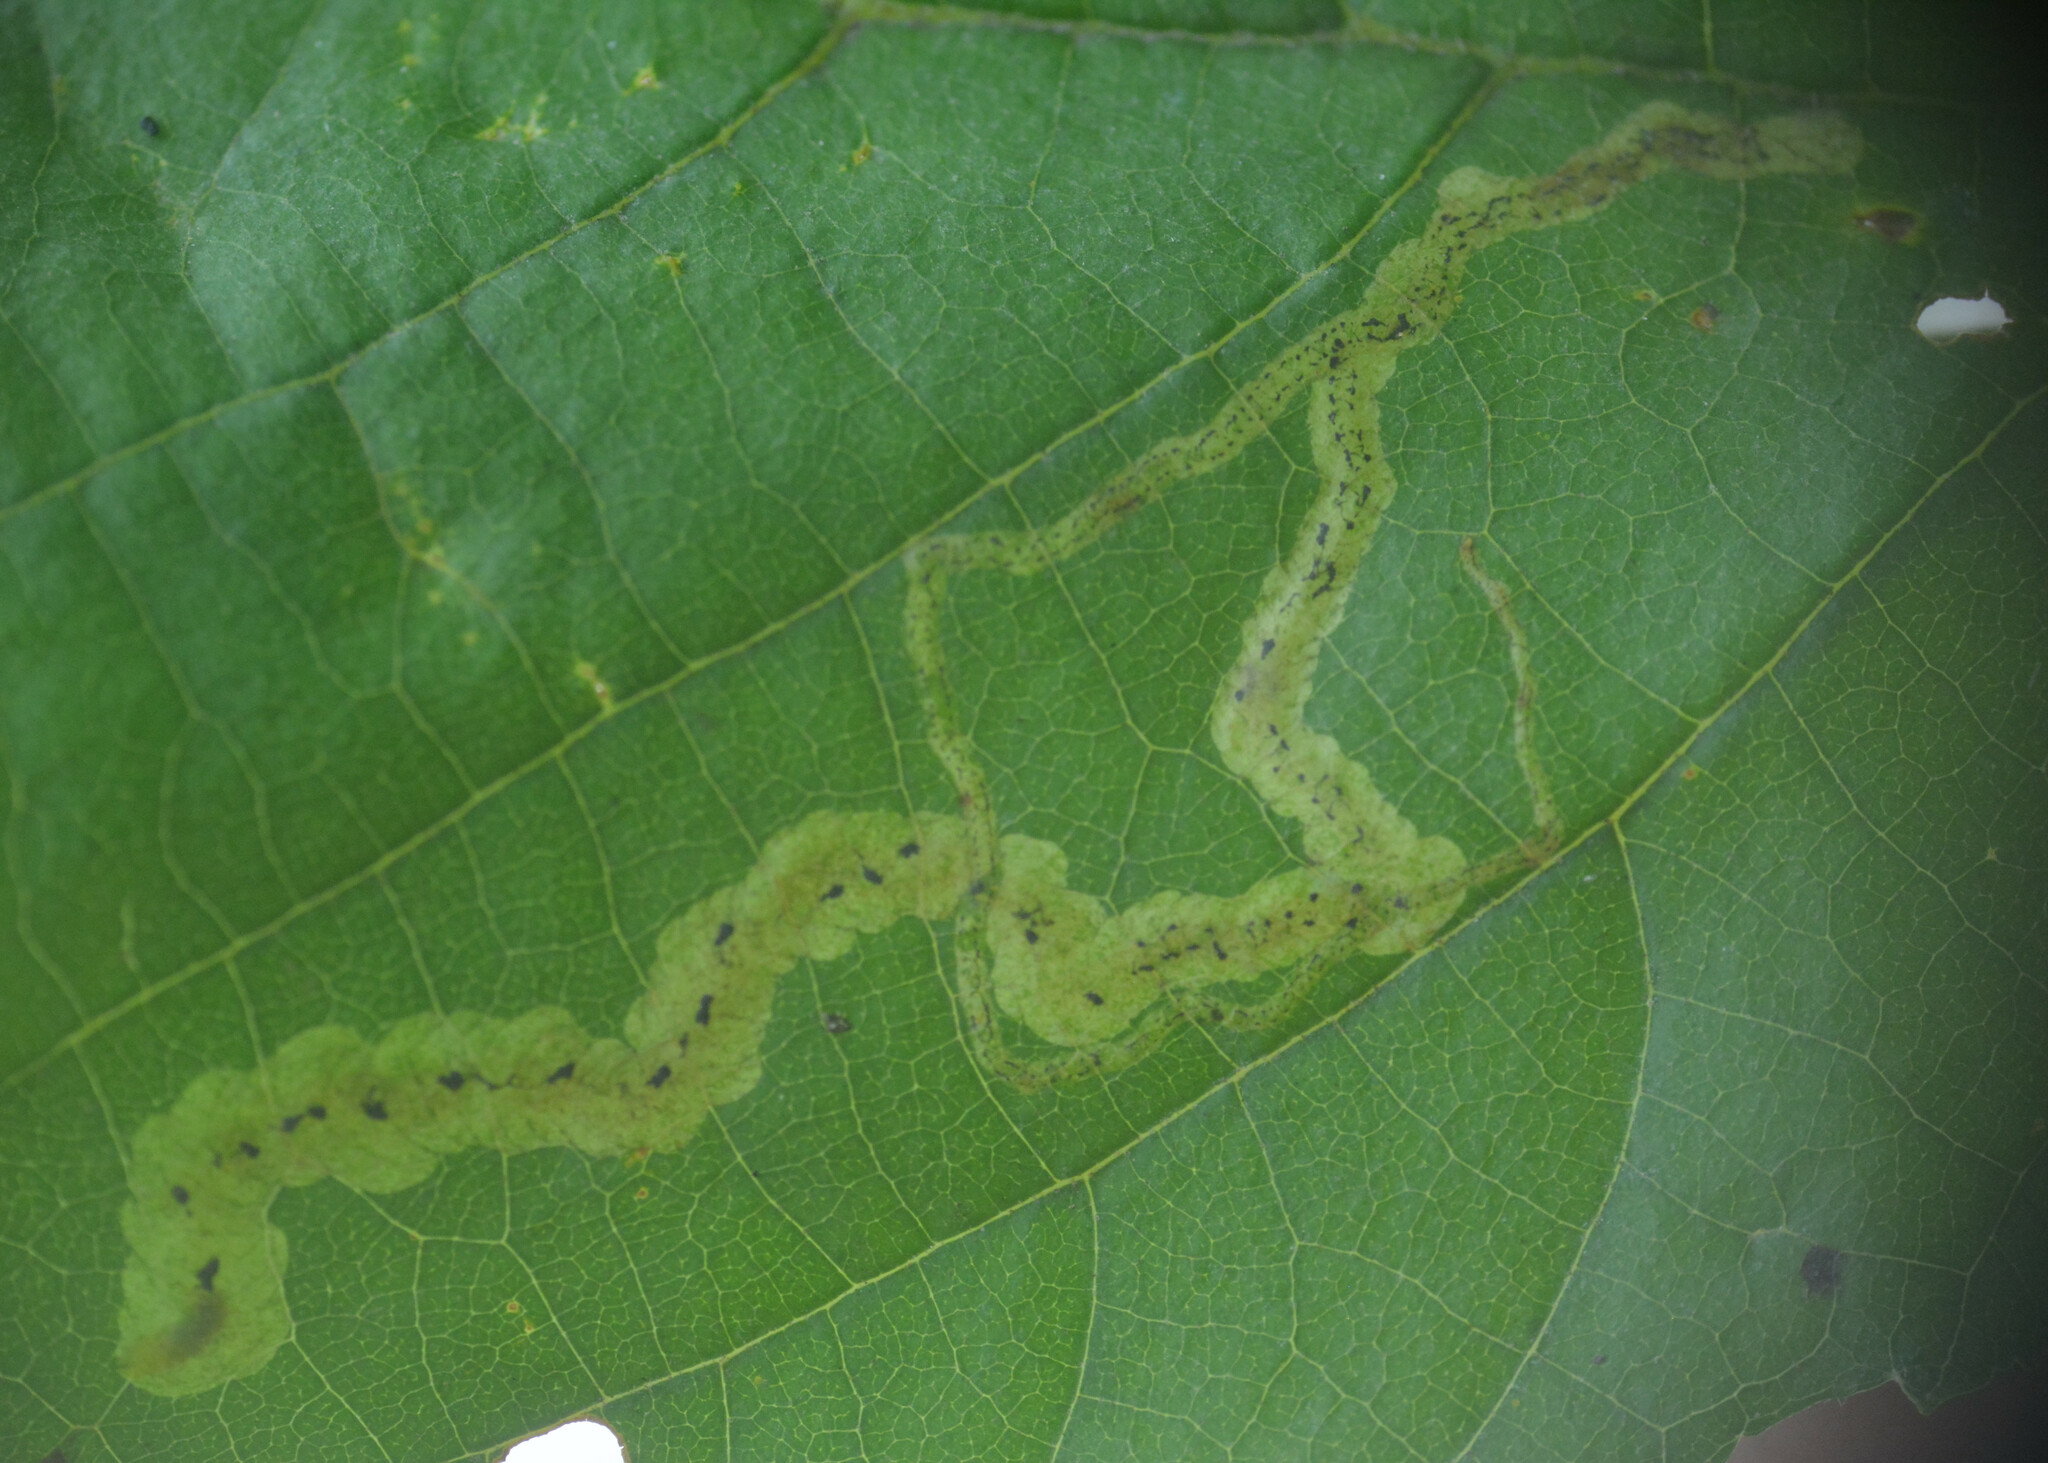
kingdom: Animalia
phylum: Arthropoda
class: Insecta
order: Diptera
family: Agromyzidae
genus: Agromyza
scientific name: Agromyza alnivora
